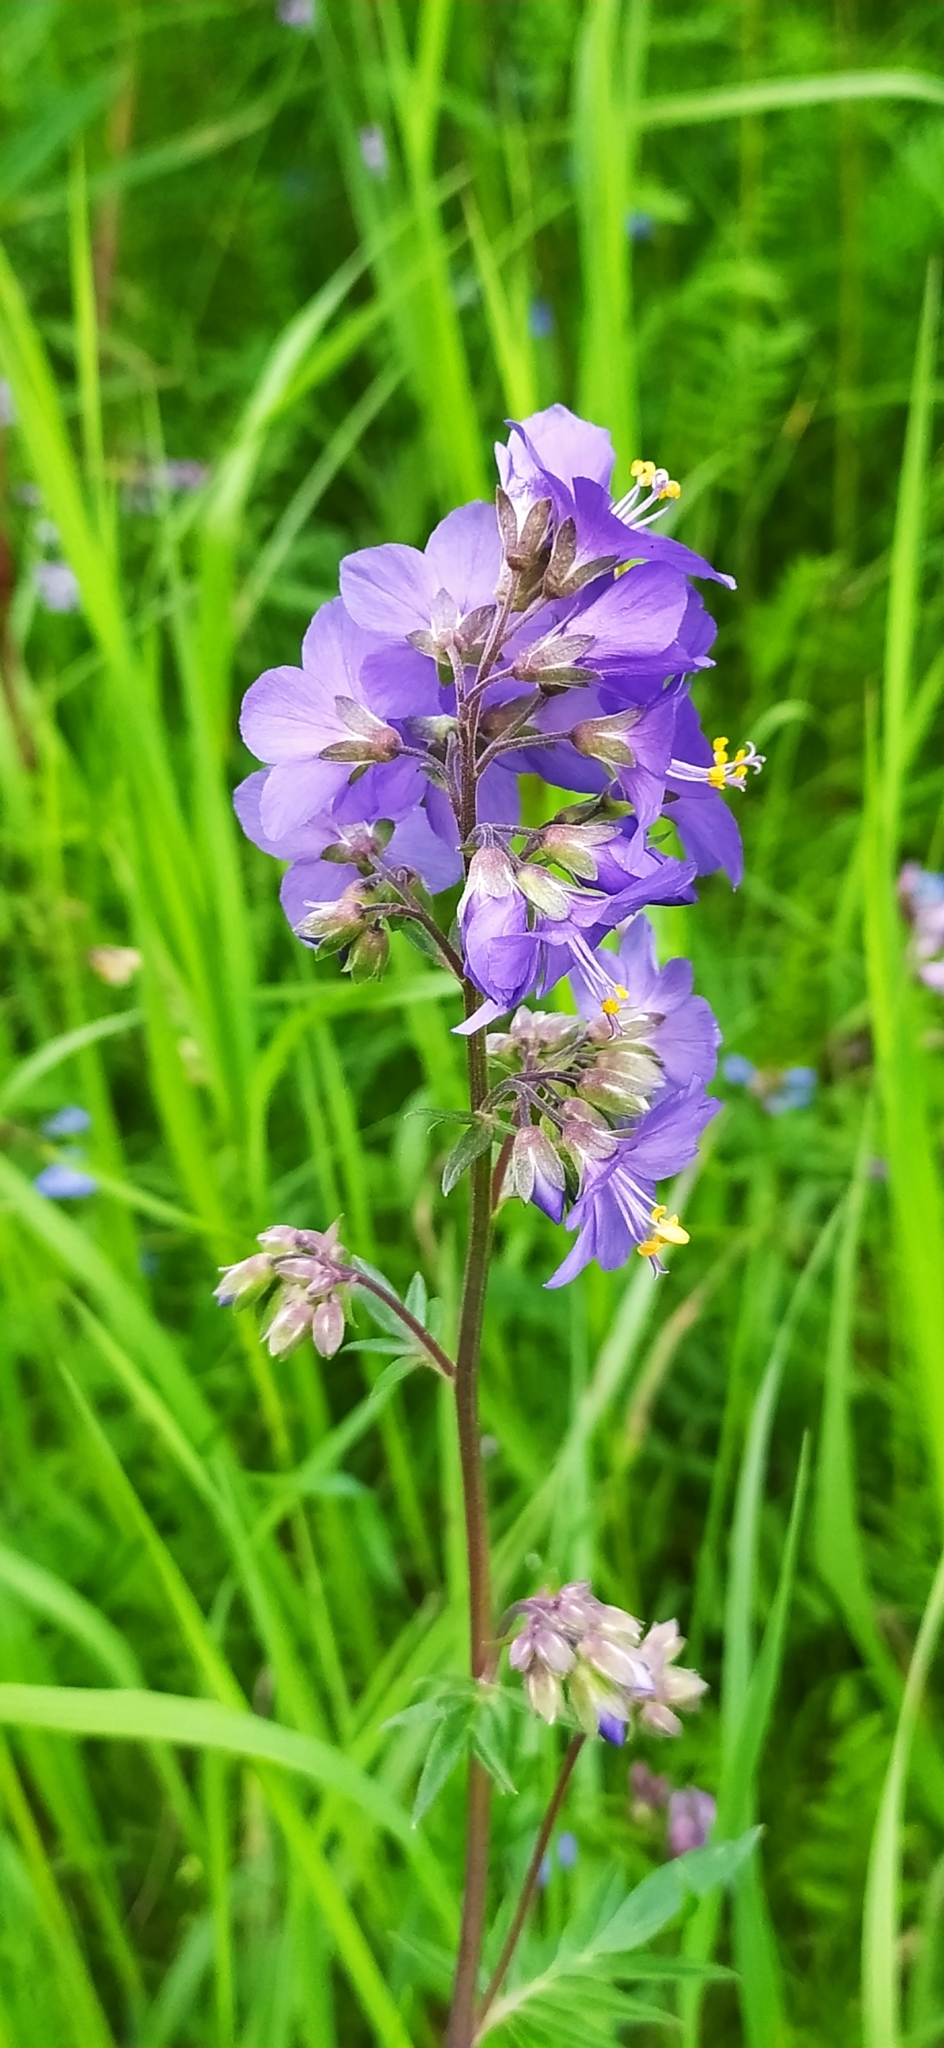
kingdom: Plantae
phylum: Tracheophyta
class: Magnoliopsida
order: Ericales
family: Polemoniaceae
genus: Polemonium
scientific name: Polemonium caeruleum
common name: Jacob's-ladder
